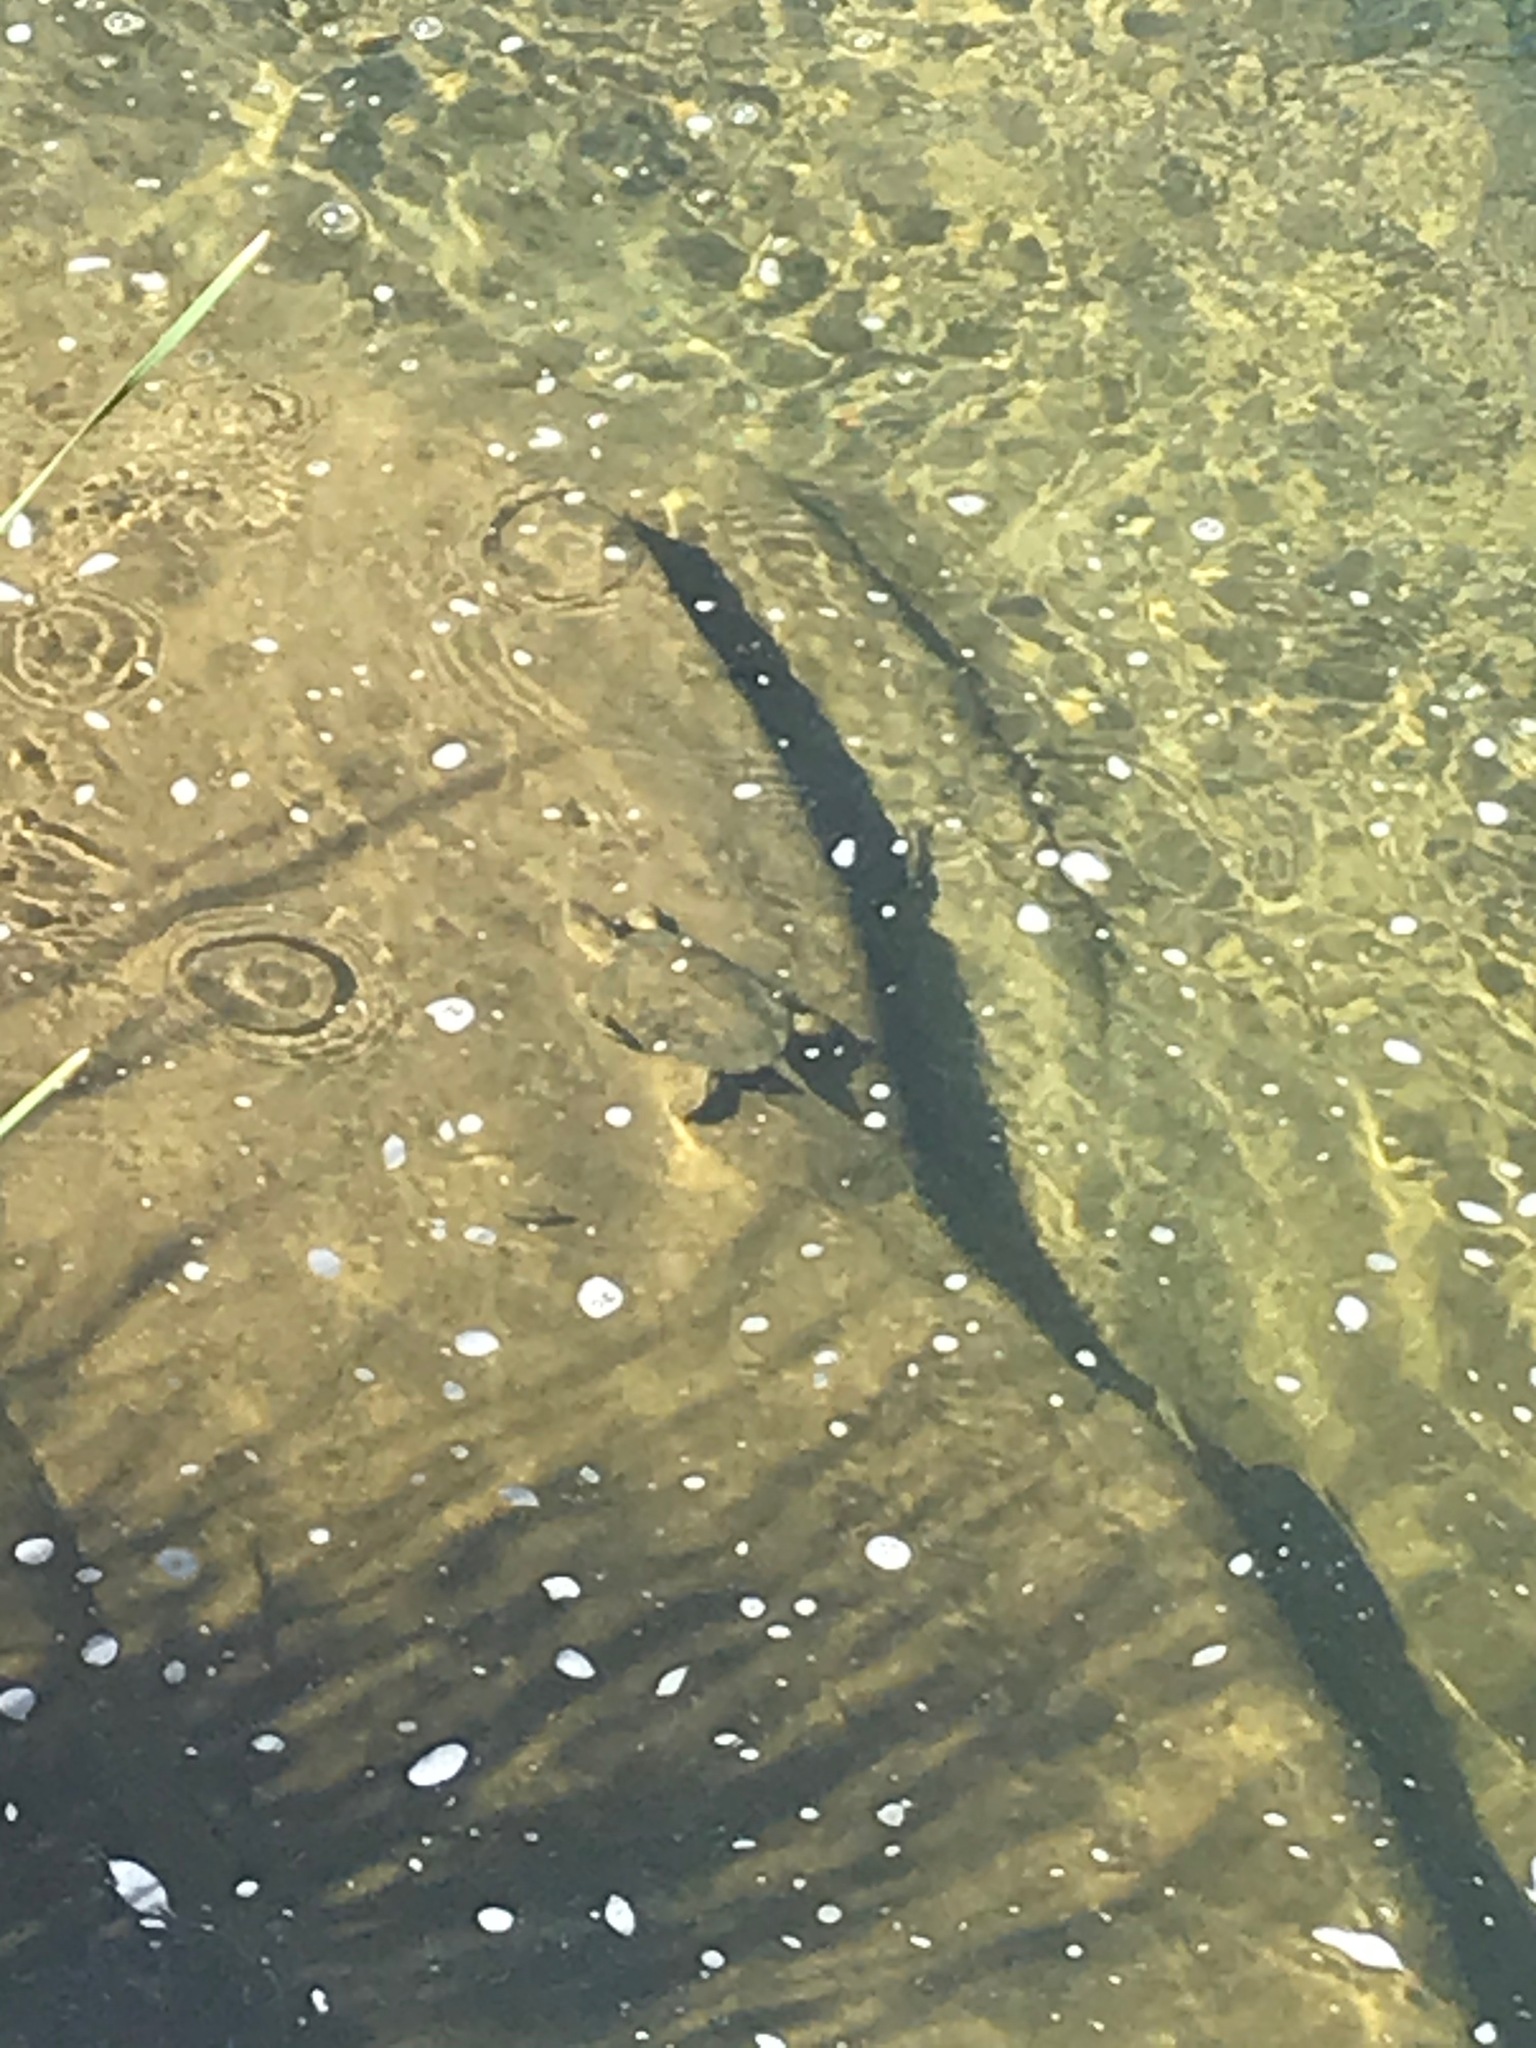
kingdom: Animalia
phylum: Chordata
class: Testudines
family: Emydidae
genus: Actinemys
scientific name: Actinemys pallida
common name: Southern pacific pond turtle
